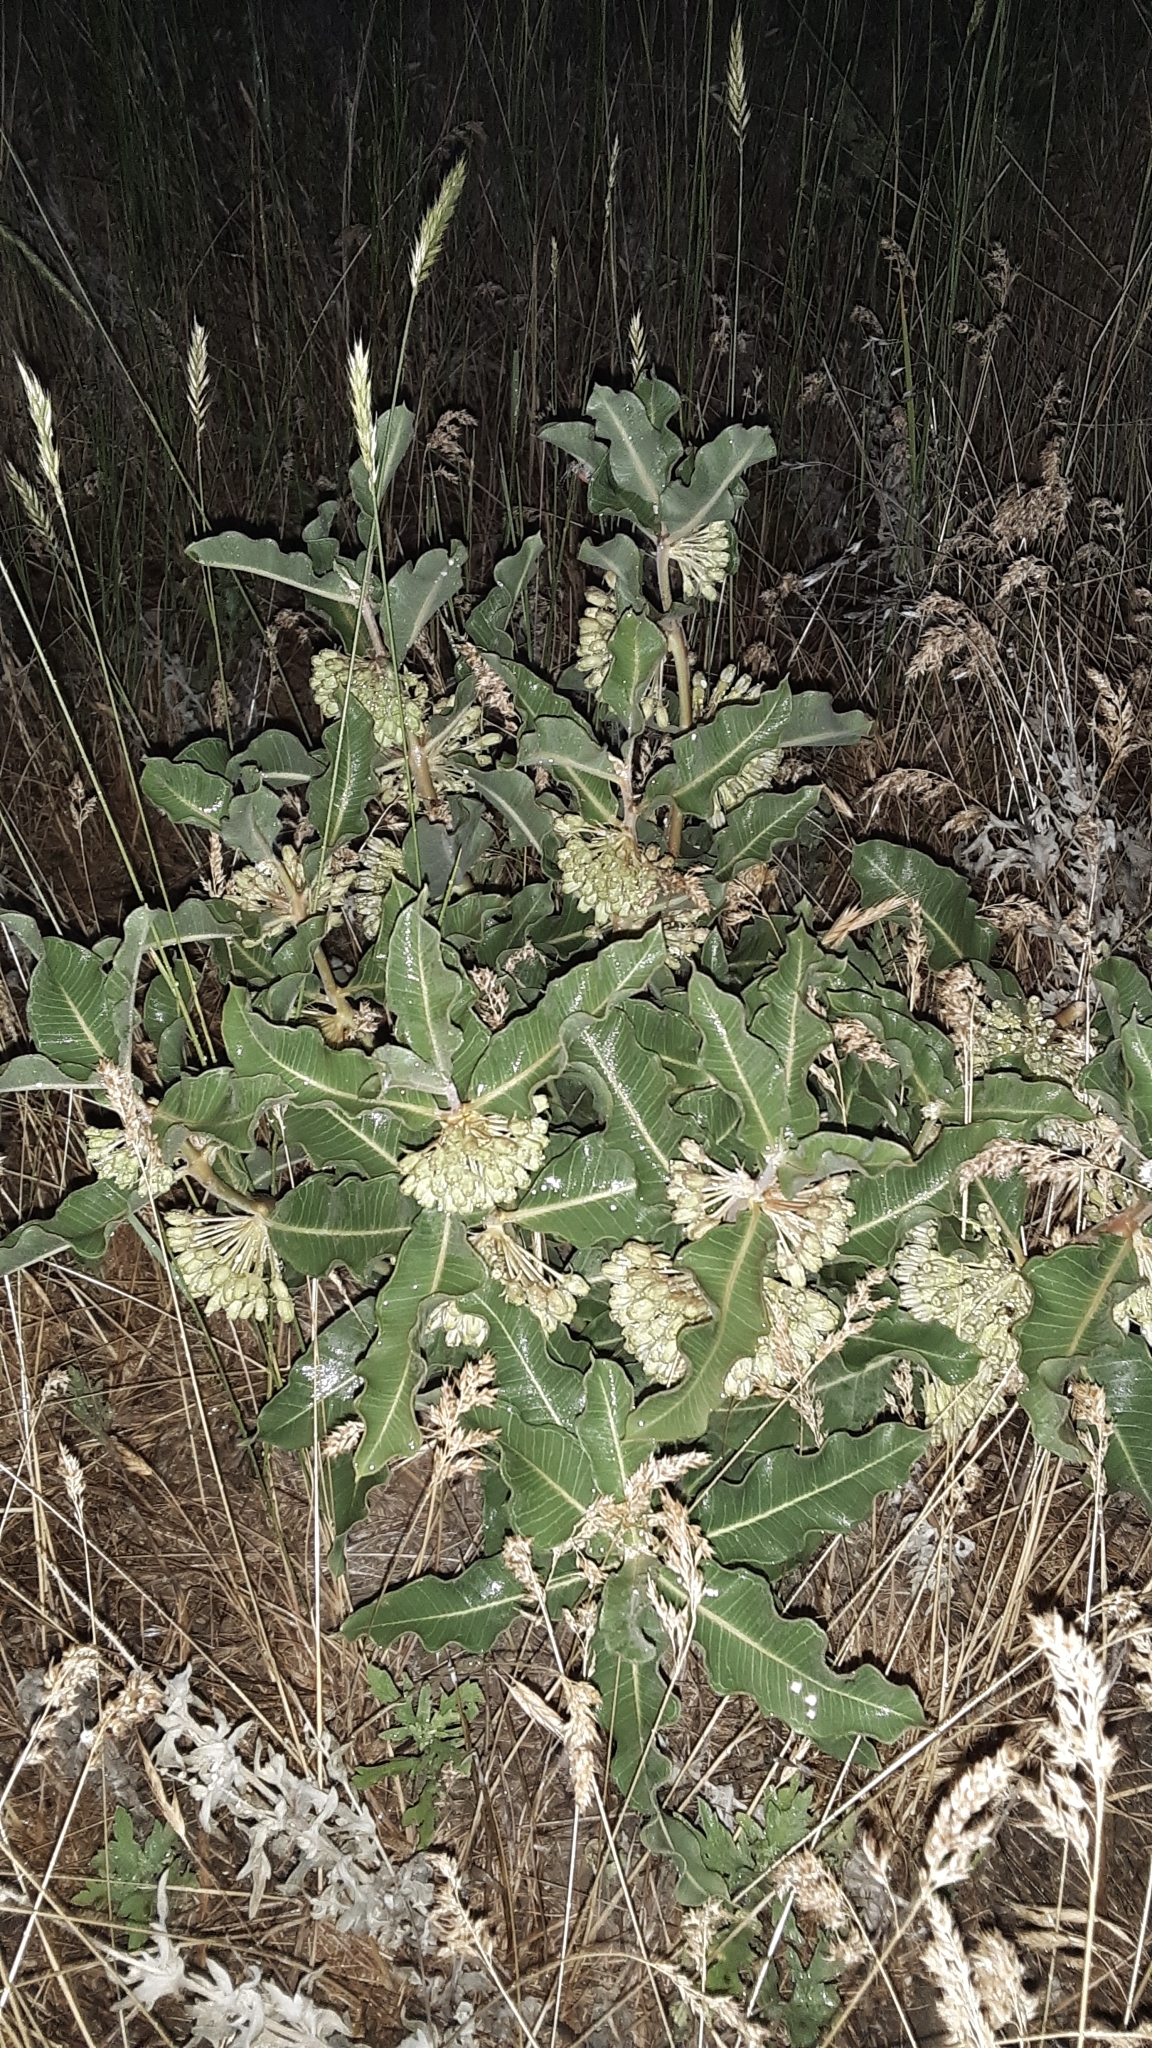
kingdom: Plantae
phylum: Tracheophyta
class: Magnoliopsida
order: Gentianales
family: Apocynaceae
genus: Asclepias
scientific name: Asclepias viridiflora
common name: Green comet milkweed
